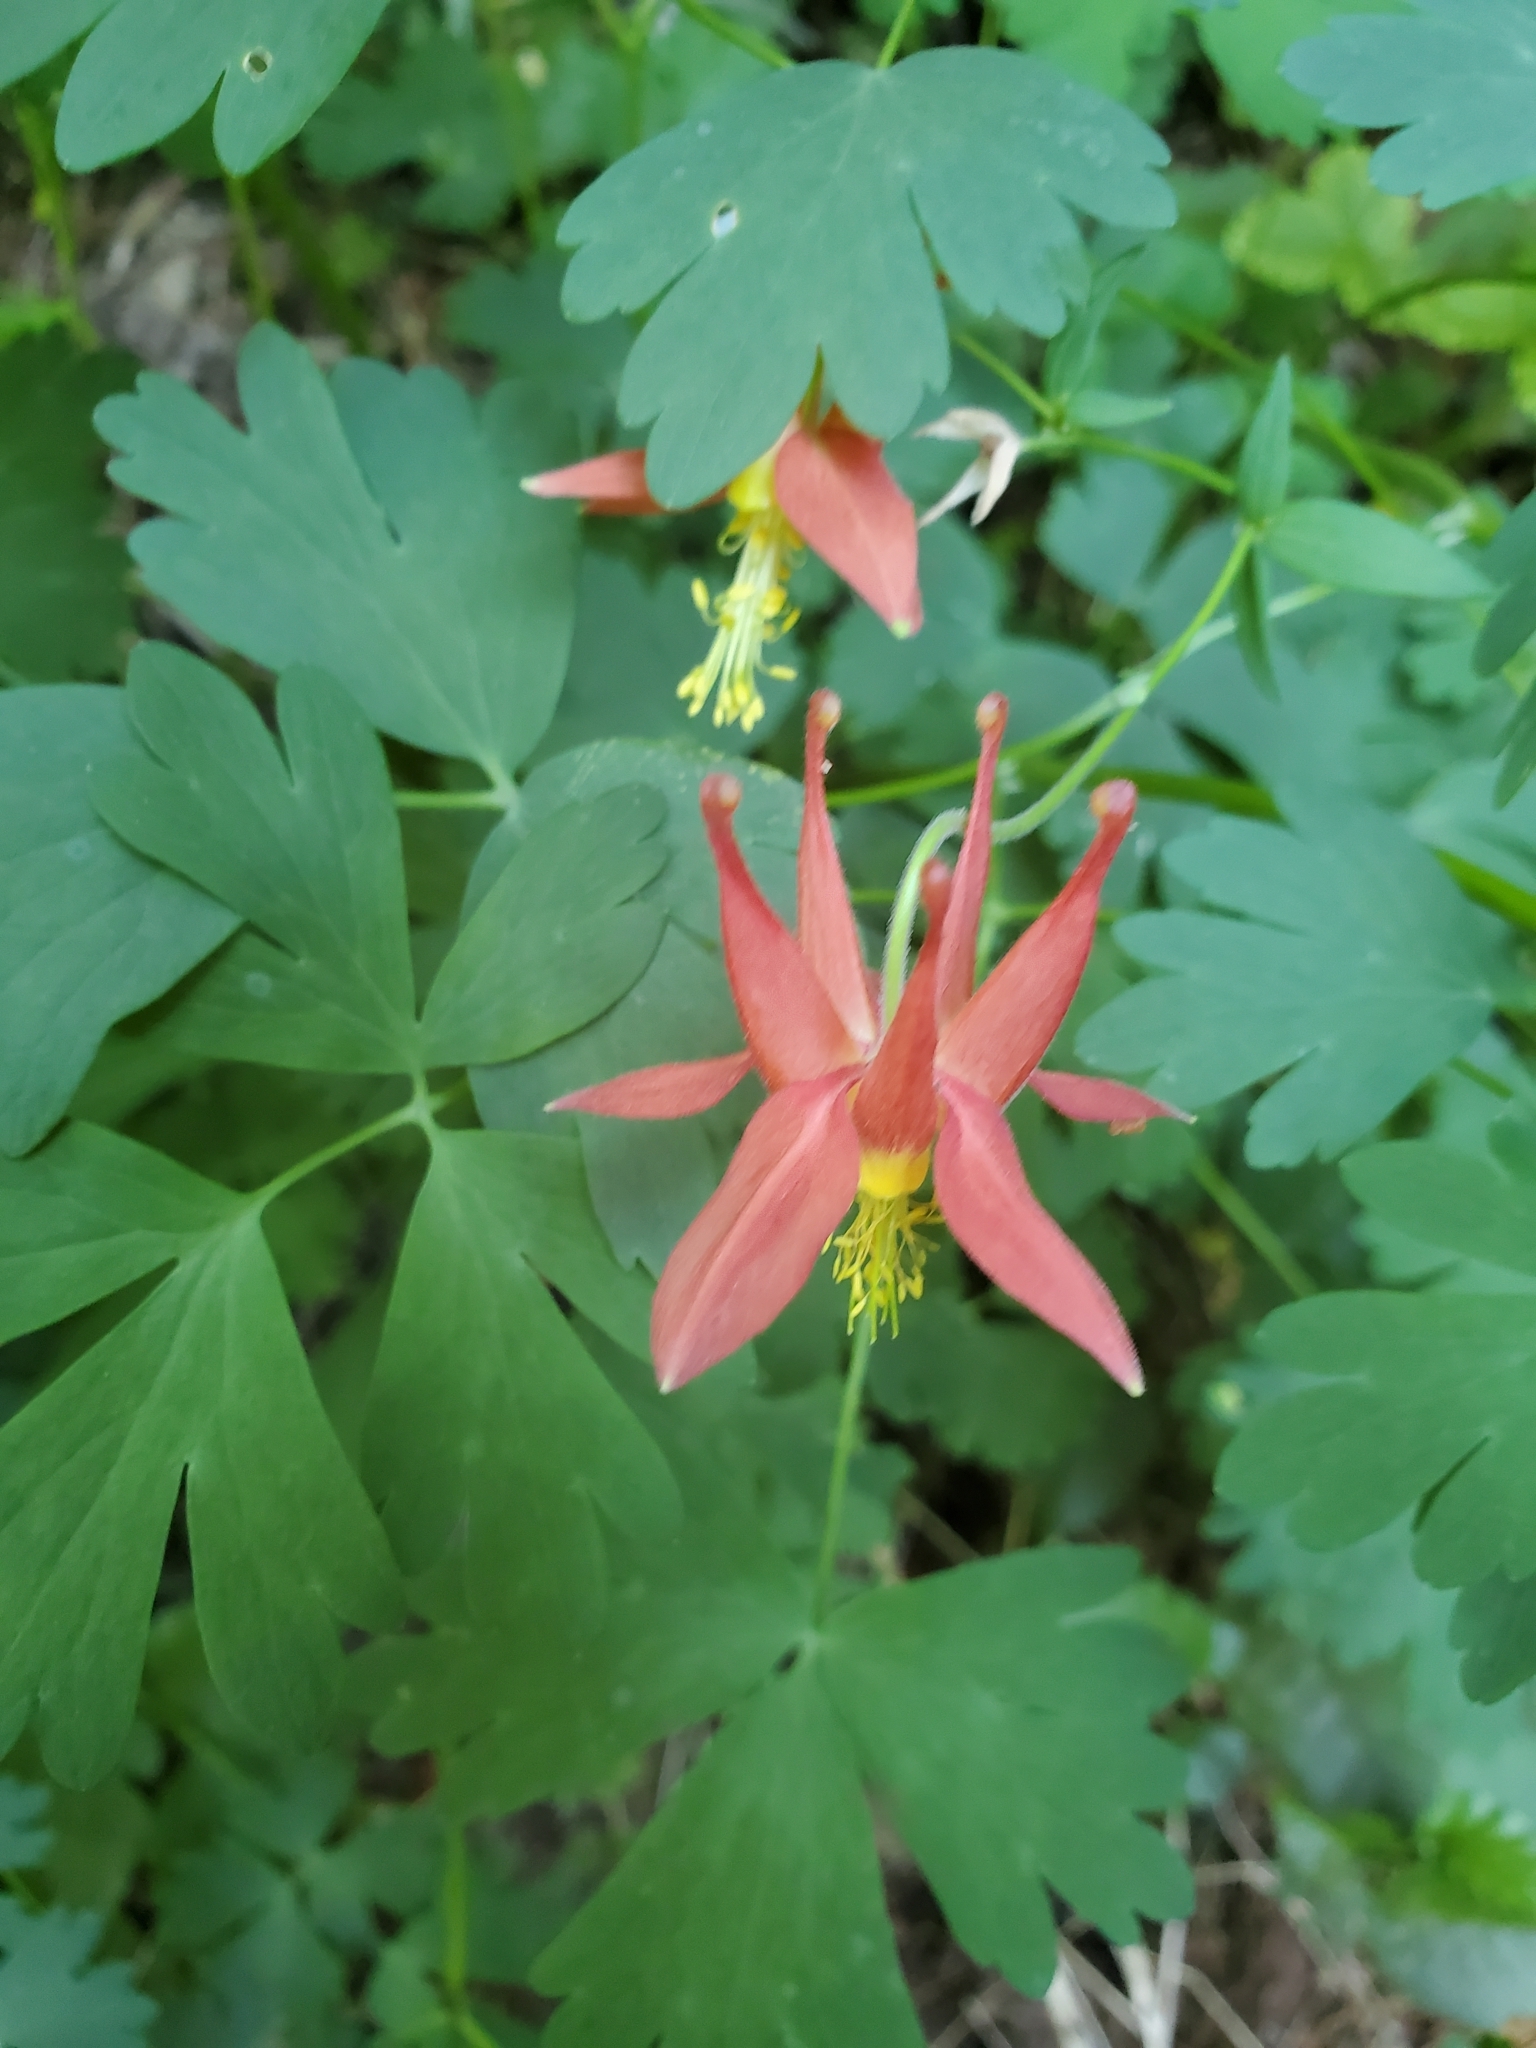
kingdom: Plantae
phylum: Tracheophyta
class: Magnoliopsida
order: Ranunculales
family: Ranunculaceae
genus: Aquilegia
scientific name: Aquilegia formosa
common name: Sitka columbine
